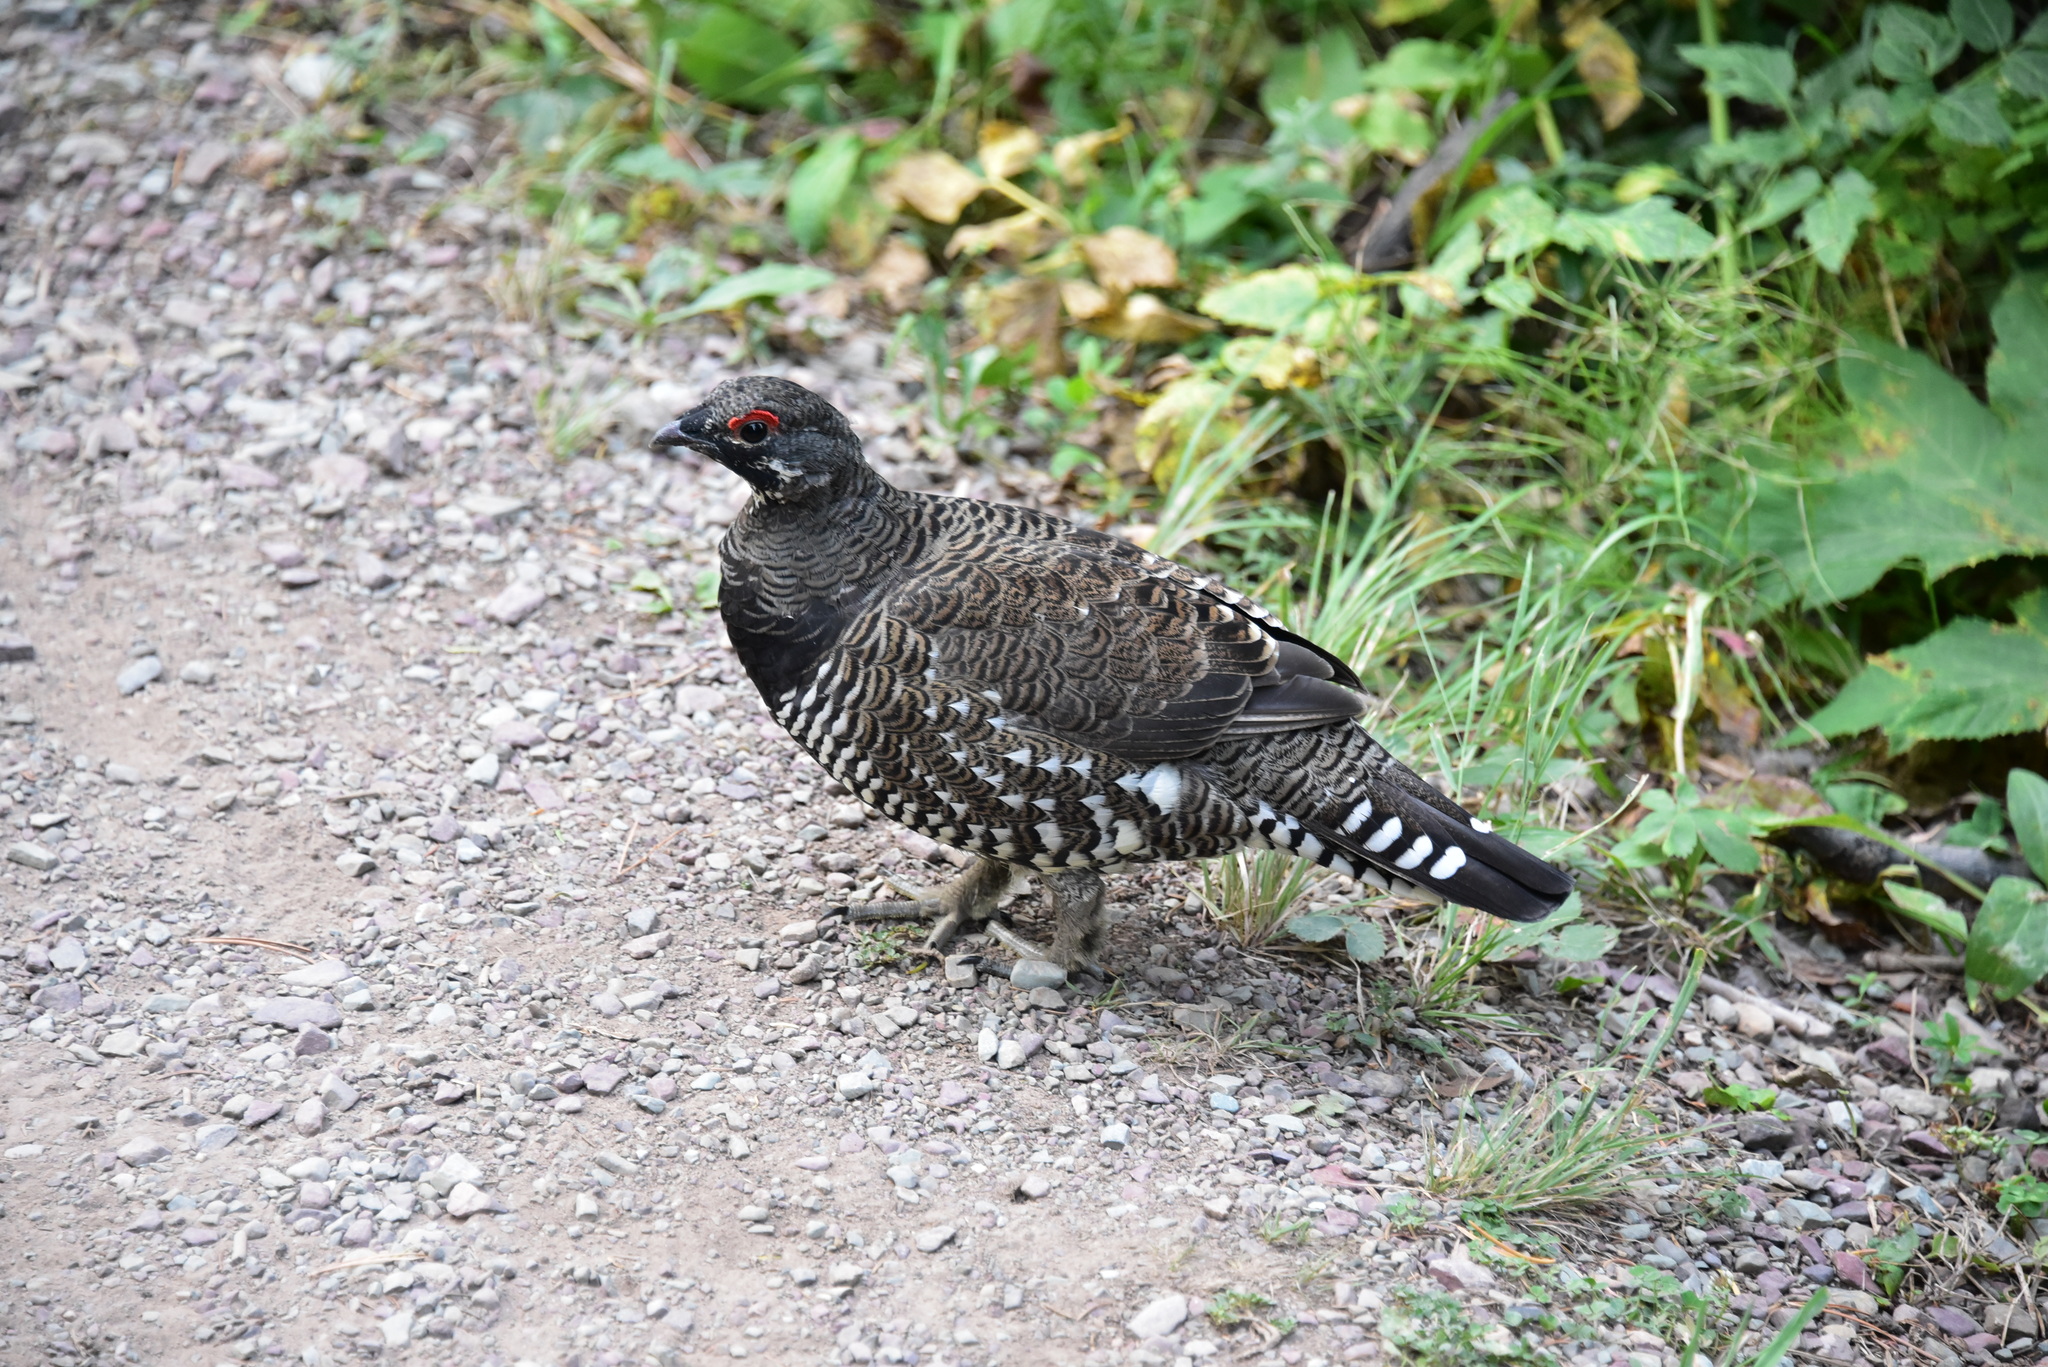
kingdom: Animalia
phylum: Chordata
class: Aves
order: Galliformes
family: Phasianidae
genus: Canachites
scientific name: Canachites canadensis
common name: Spruce grouse
